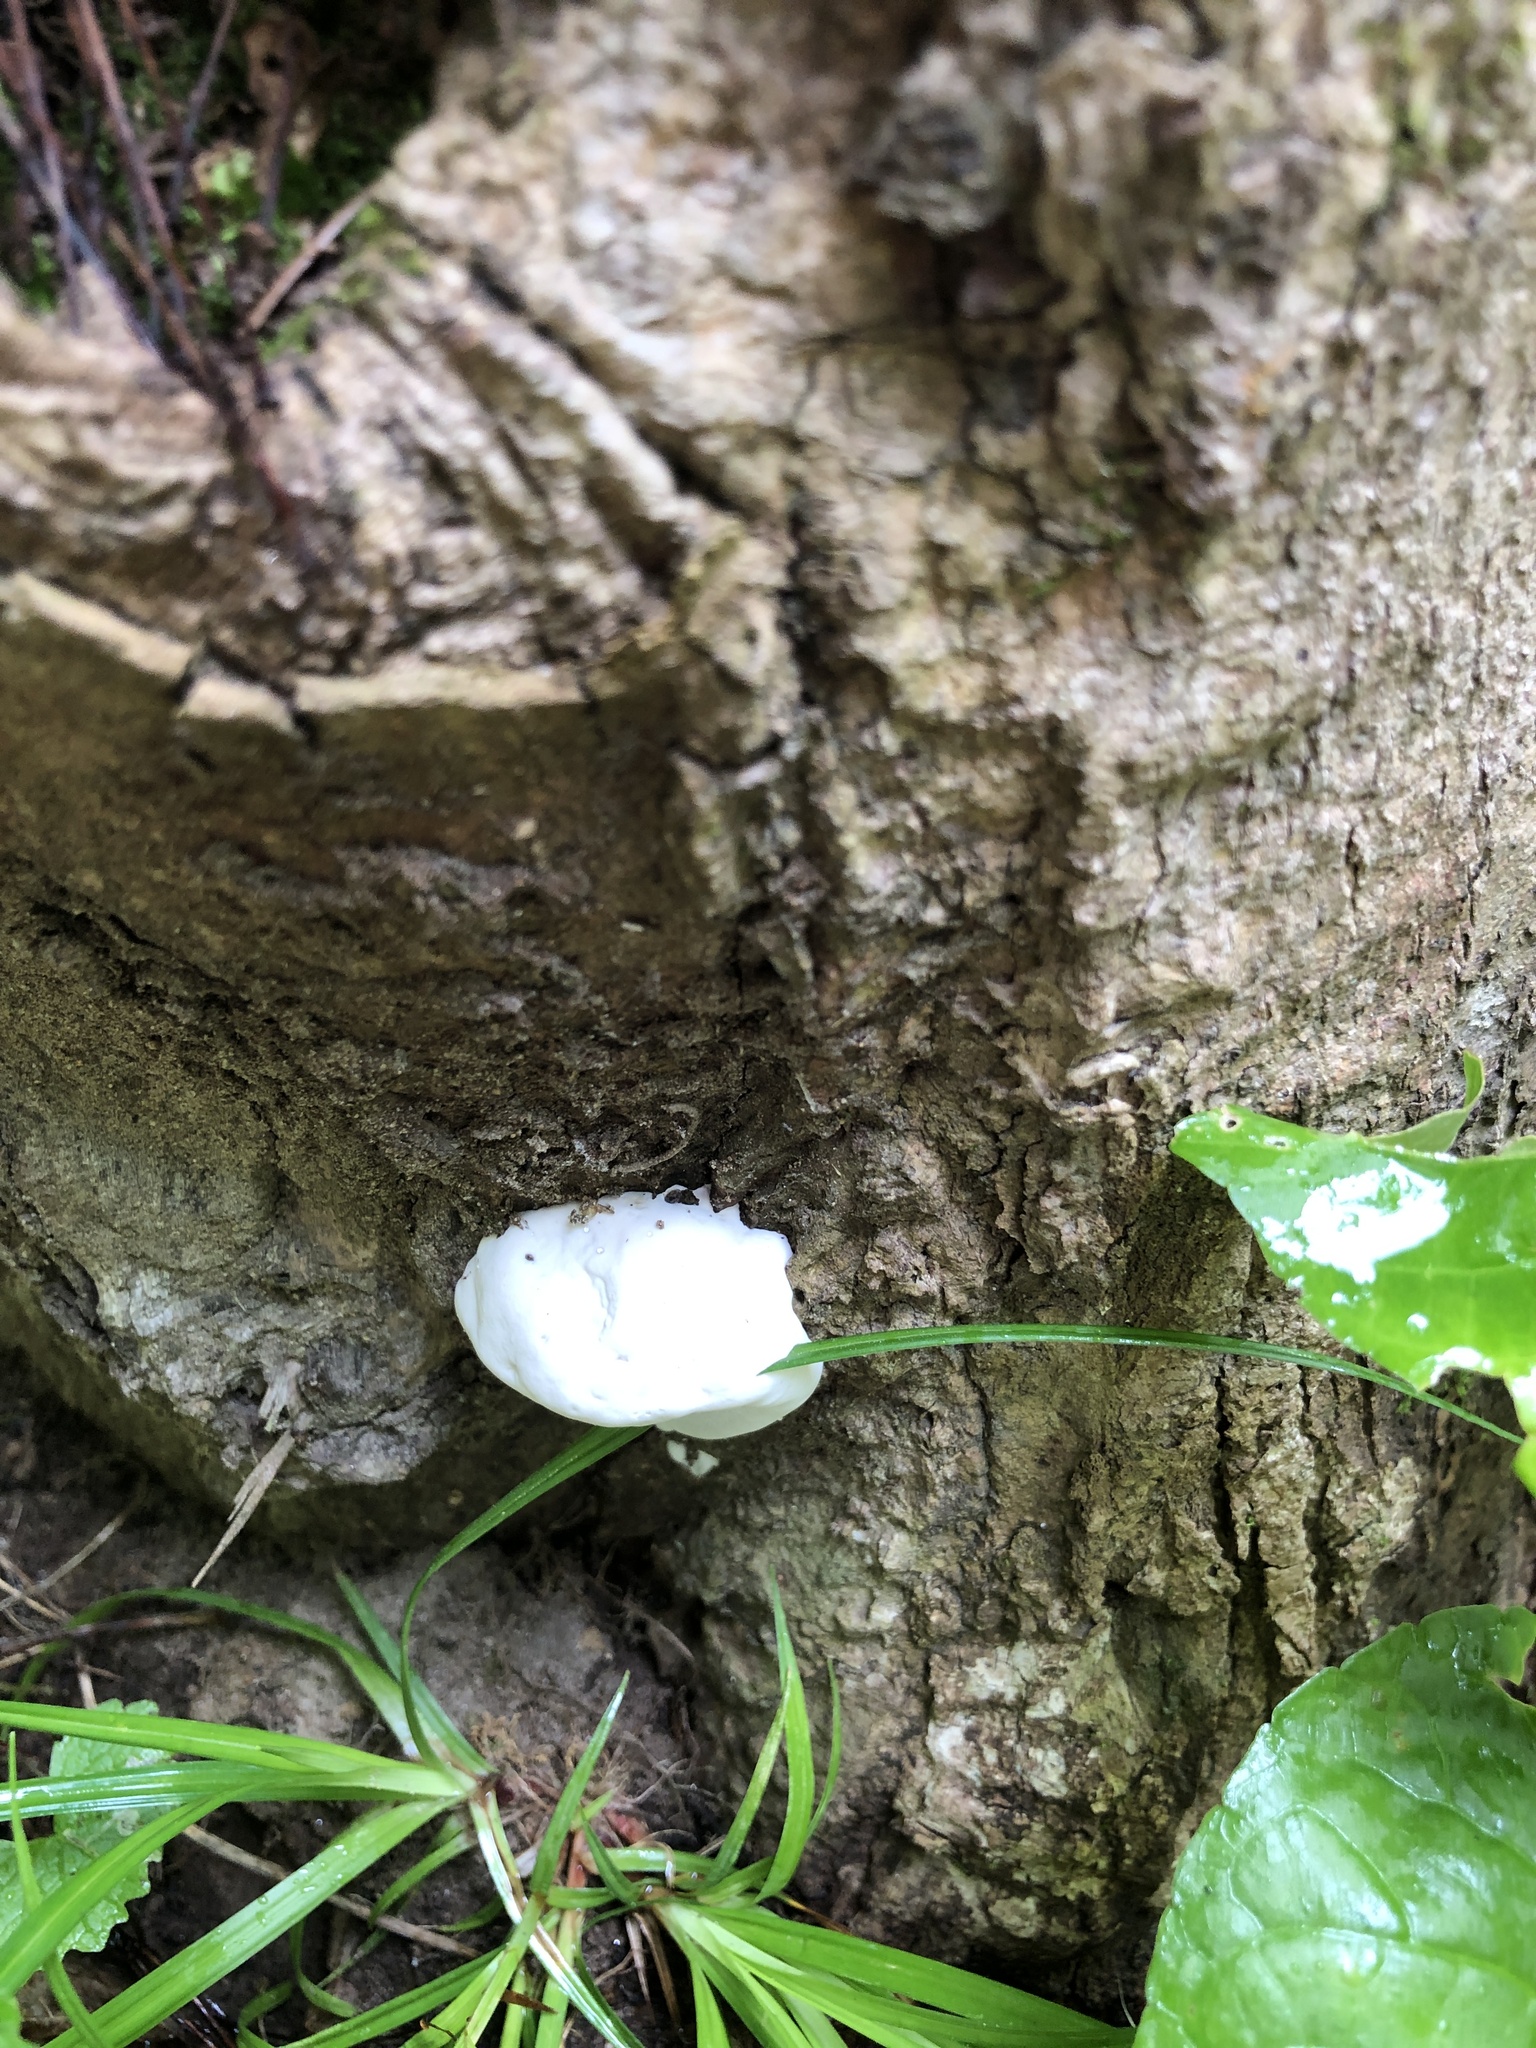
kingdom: Protozoa
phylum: Mycetozoa
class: Myxomycetes
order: Cribrariales
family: Tubiferaceae
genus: Reticularia
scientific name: Reticularia lycoperdon
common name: False puffball
